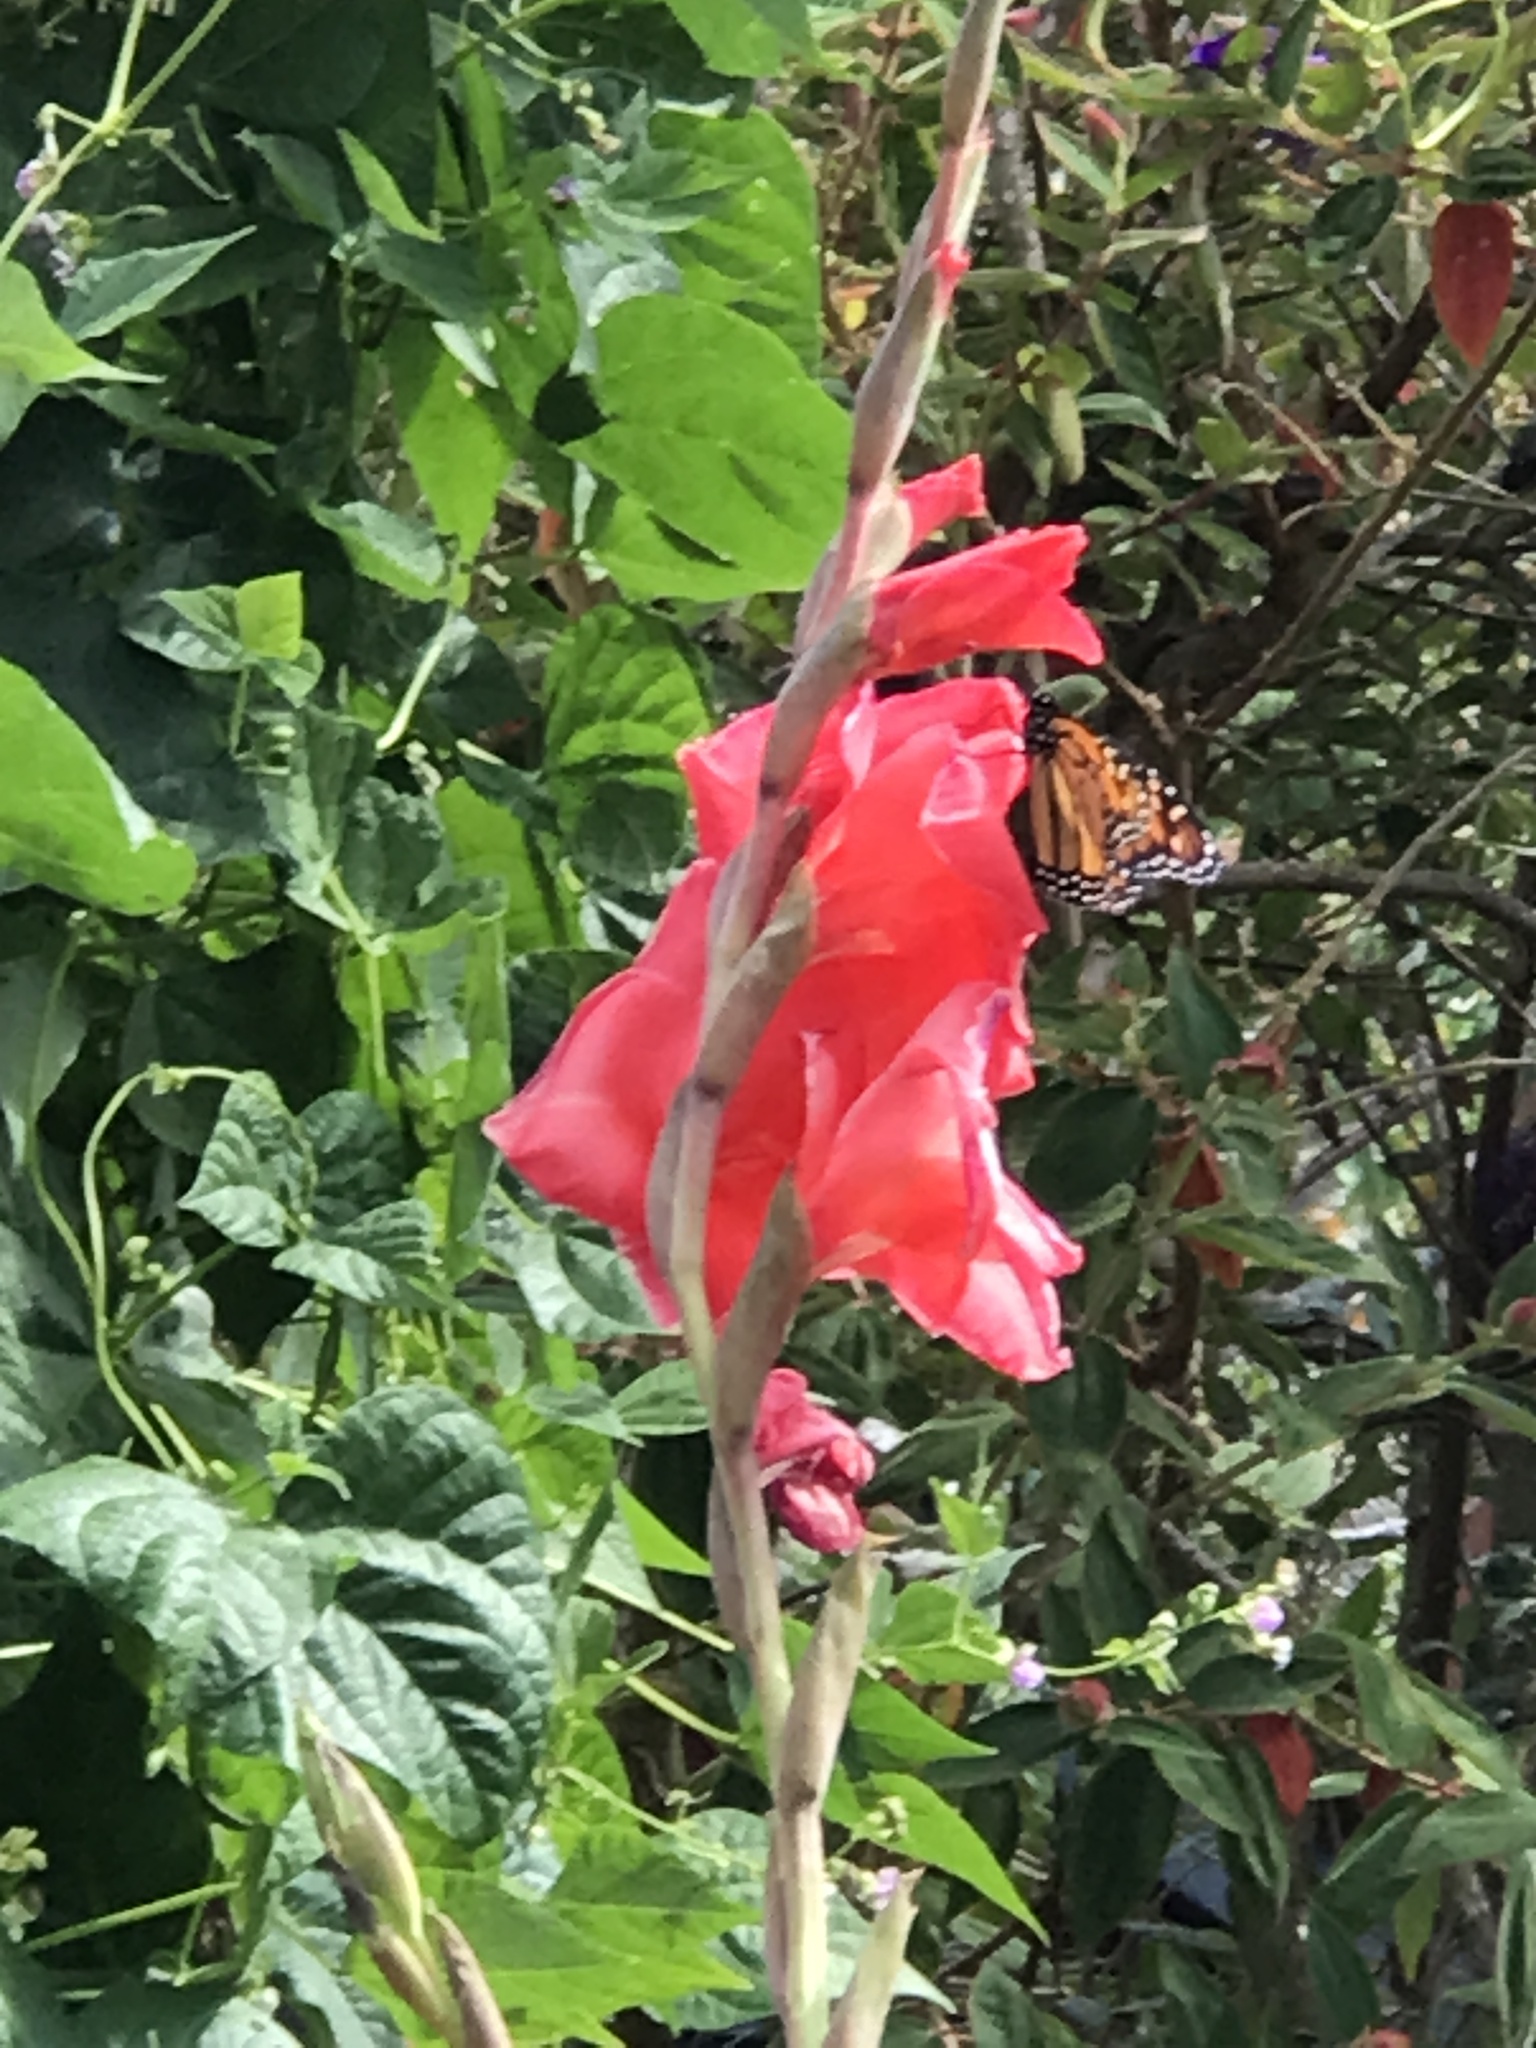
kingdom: Animalia
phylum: Arthropoda
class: Insecta
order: Lepidoptera
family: Nymphalidae
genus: Danaus
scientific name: Danaus plexippus
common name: Monarch
